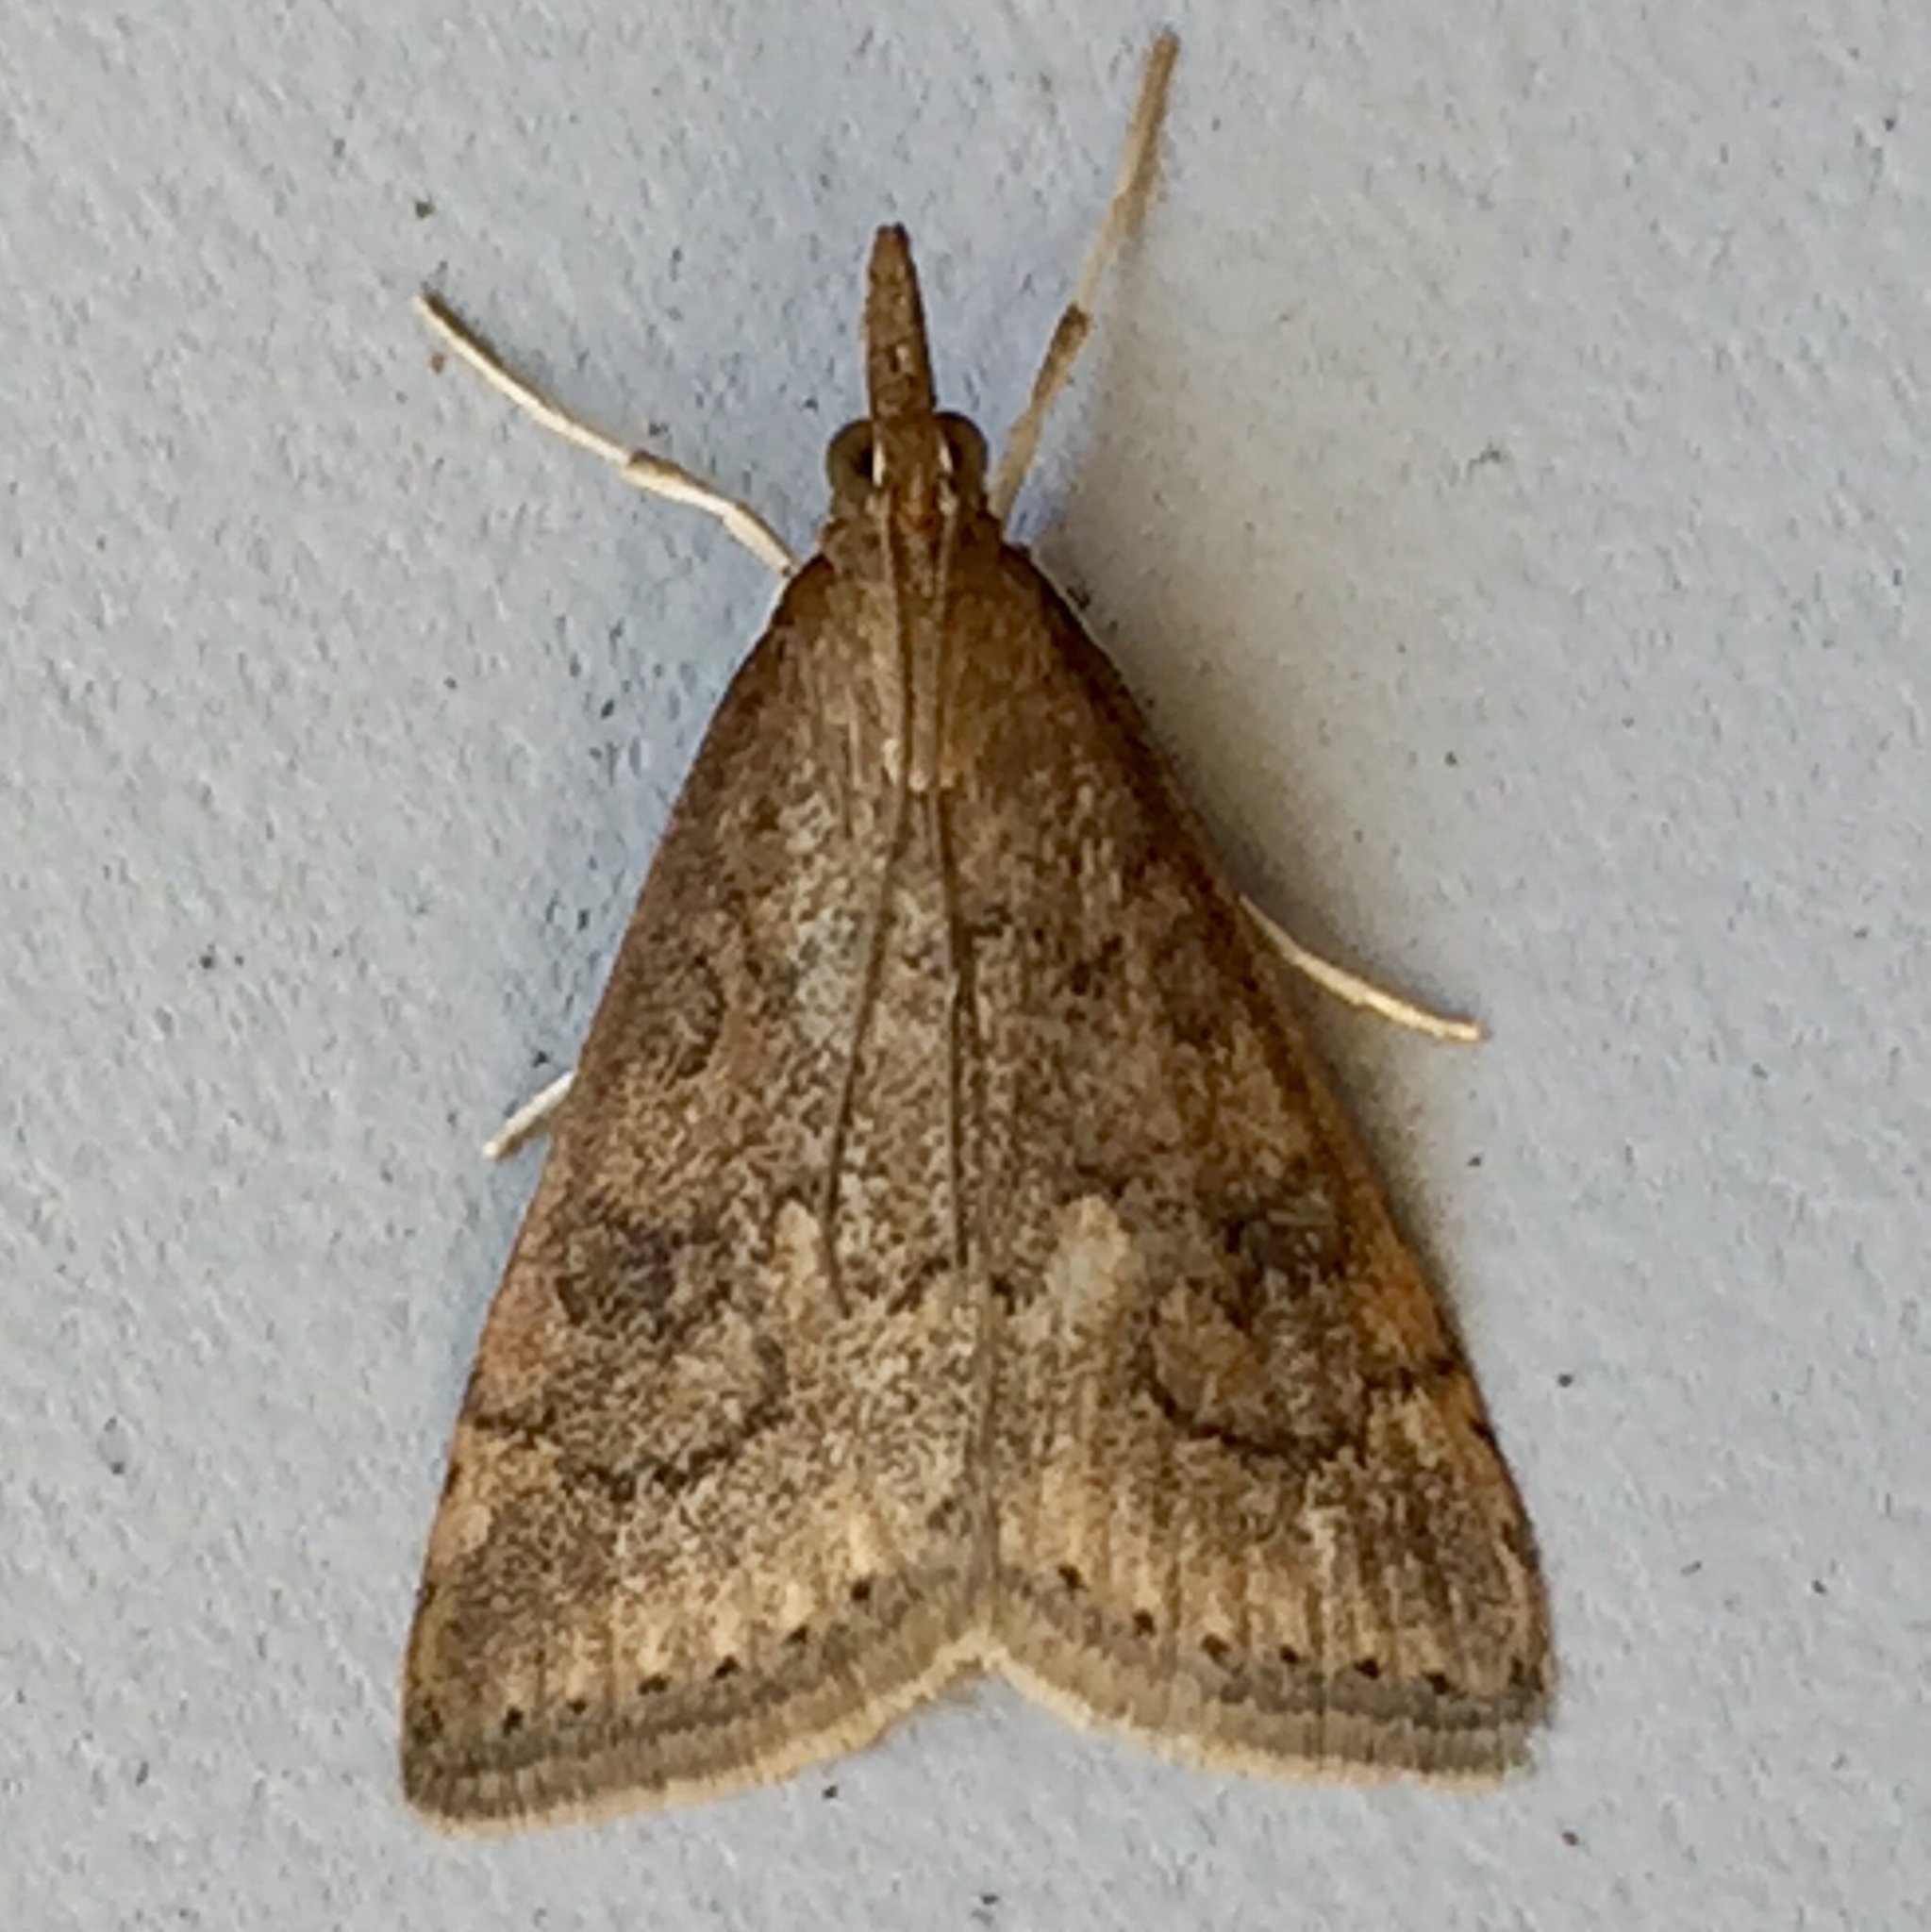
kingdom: Animalia
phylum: Arthropoda
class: Insecta
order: Lepidoptera
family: Crambidae
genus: Udea
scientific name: Udea rubigalis
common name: Celery leaftier moth
